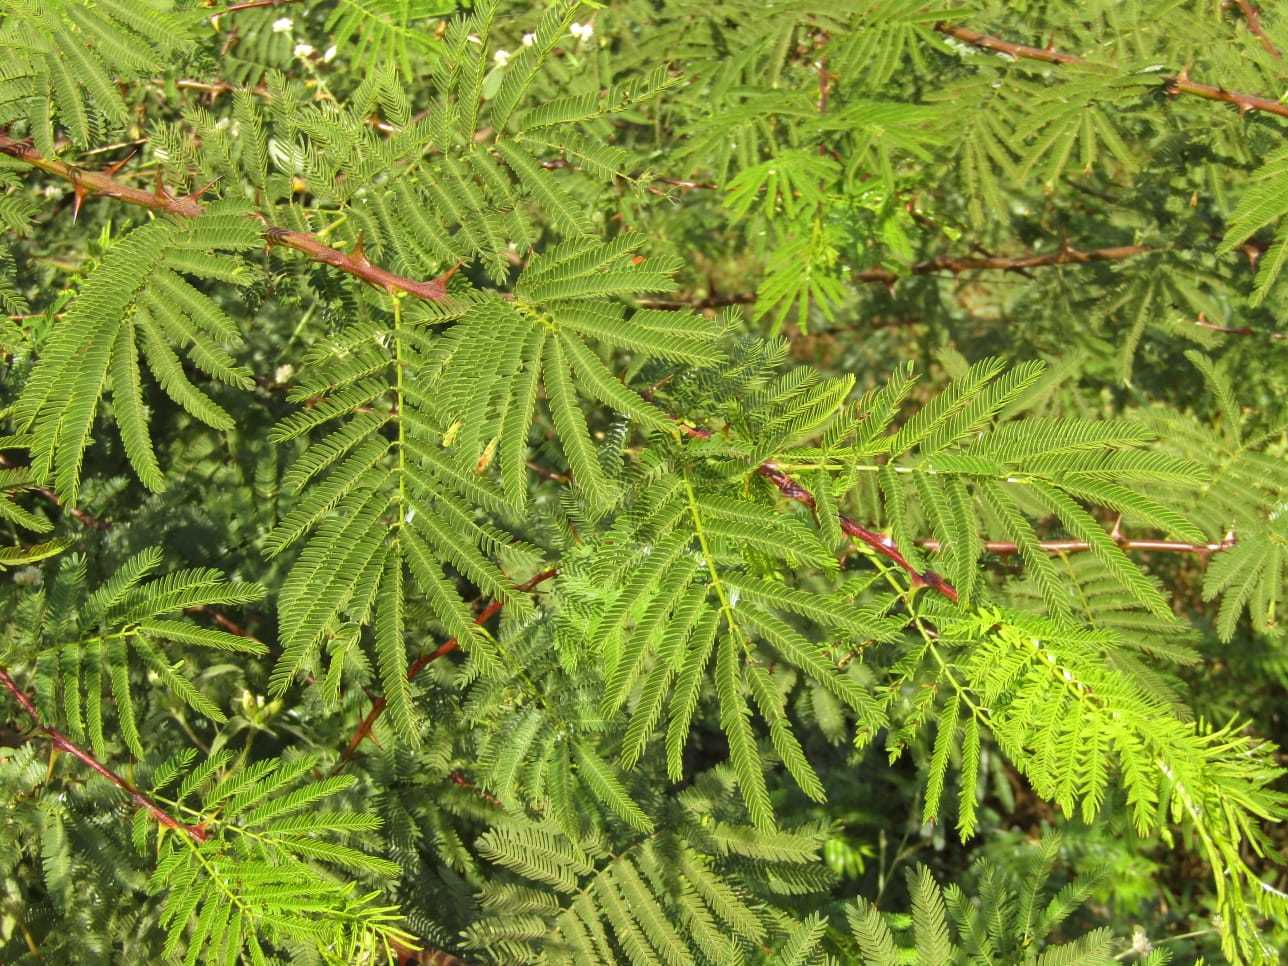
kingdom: Plantae
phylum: Tracheophyta
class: Magnoliopsida
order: Fabales
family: Fabaceae
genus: Mimosa
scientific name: Mimosa tenuiflora
